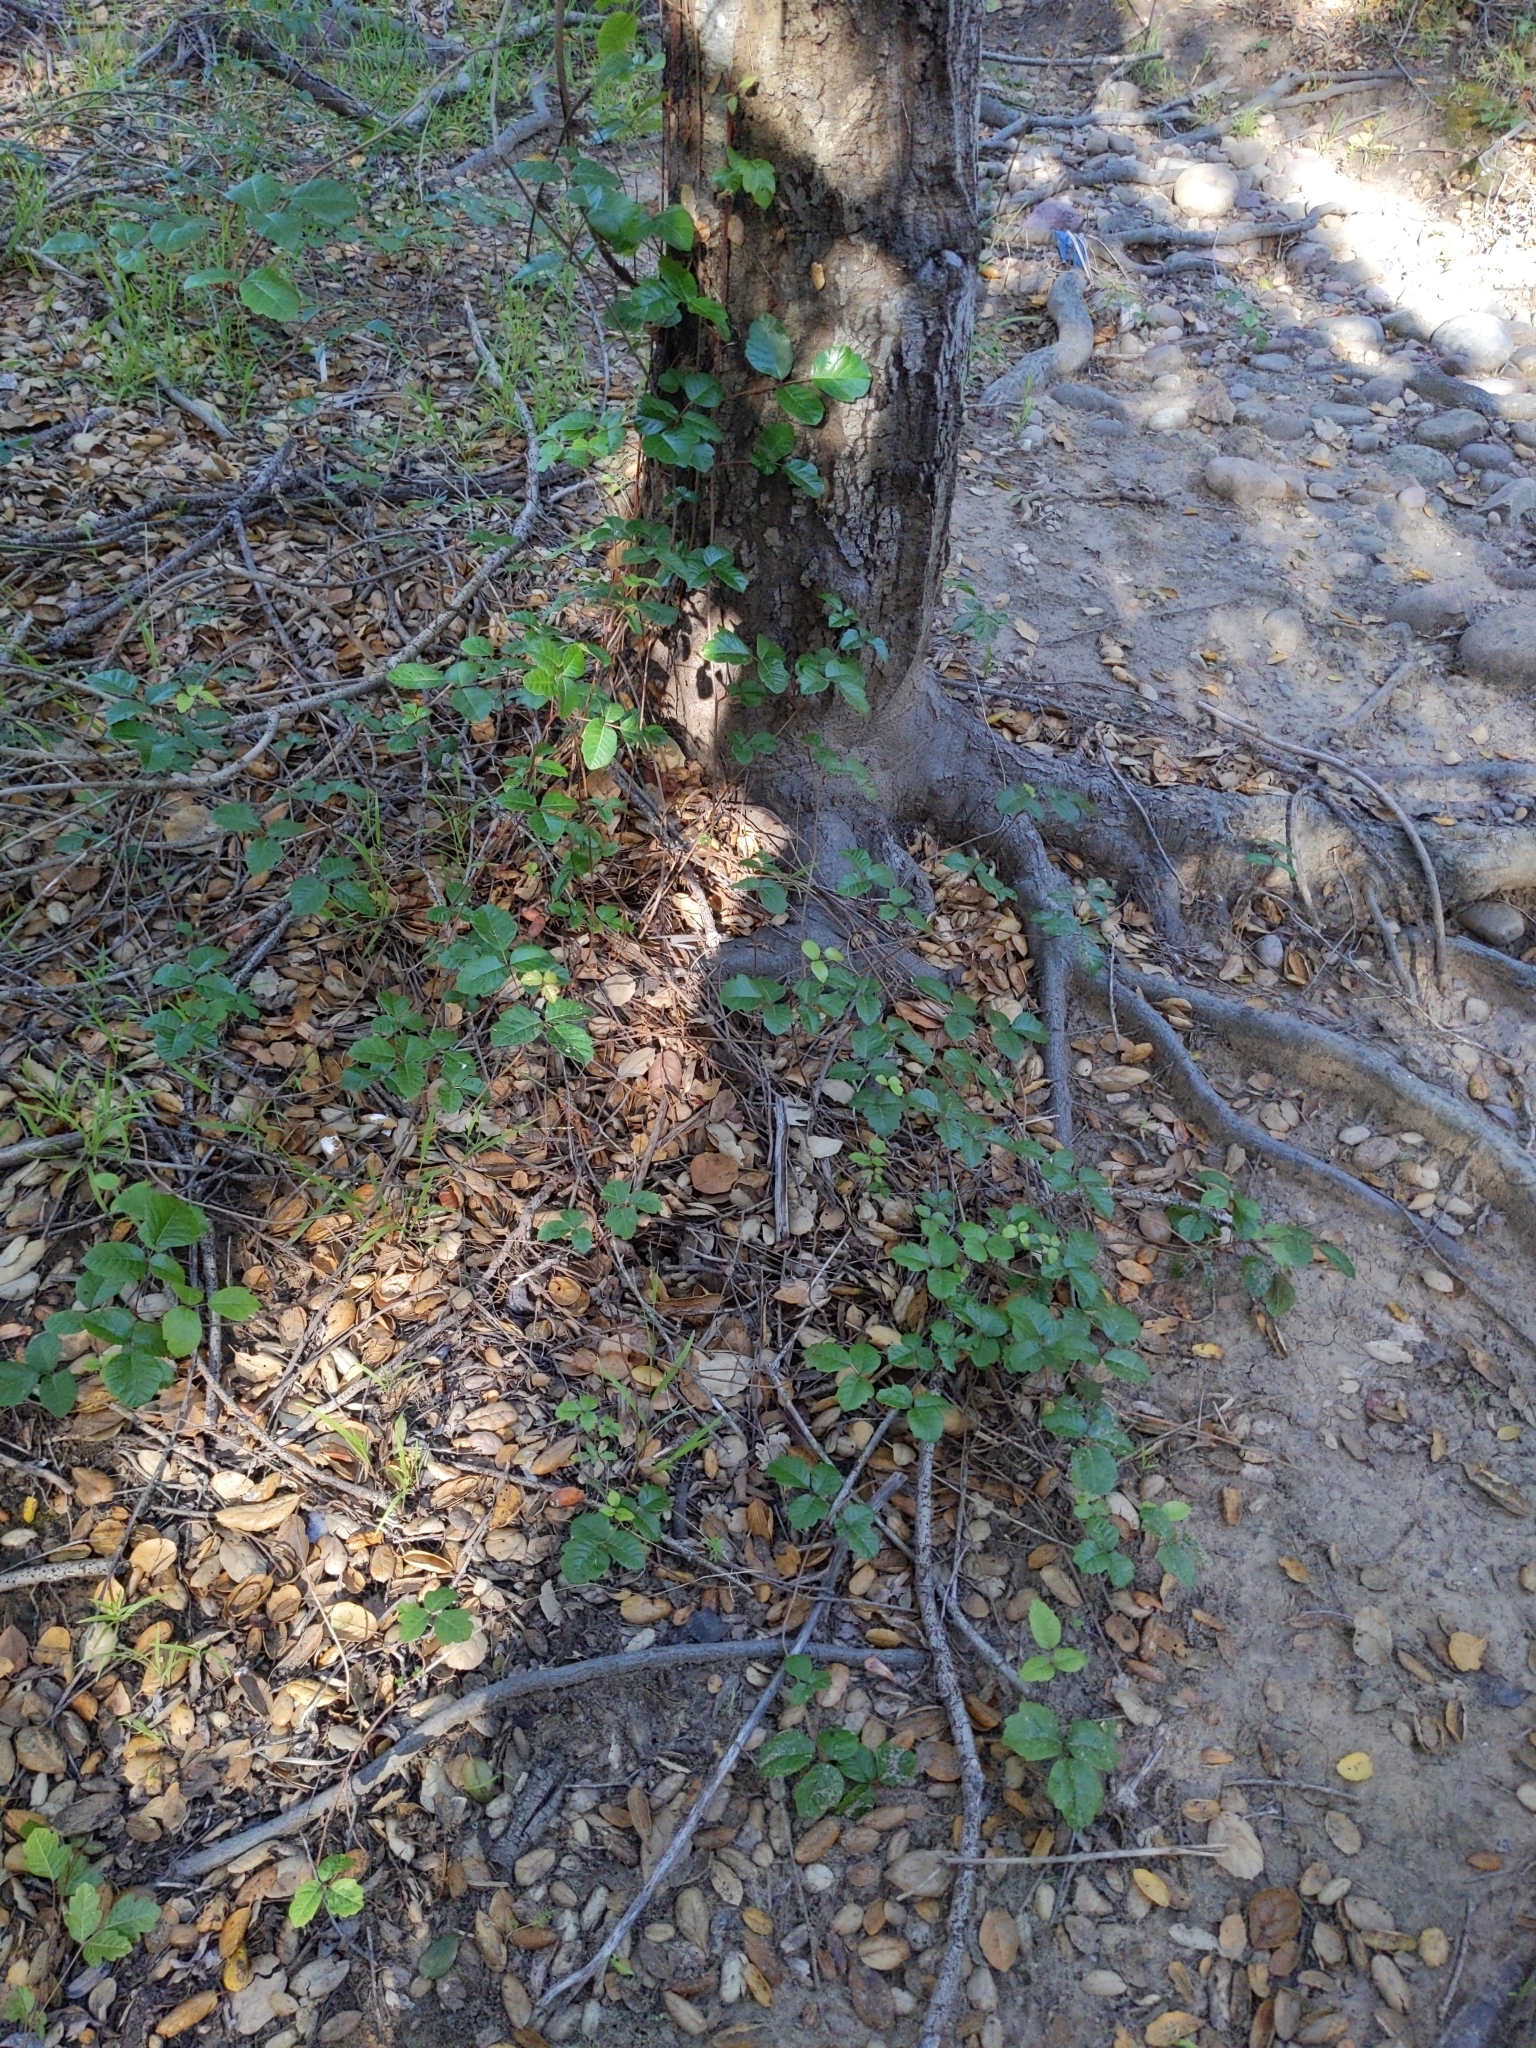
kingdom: Fungi
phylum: Basidiomycota
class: Agaricomycetes
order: Agaricales
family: Amanitaceae
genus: Amanita
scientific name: Amanita velosa
